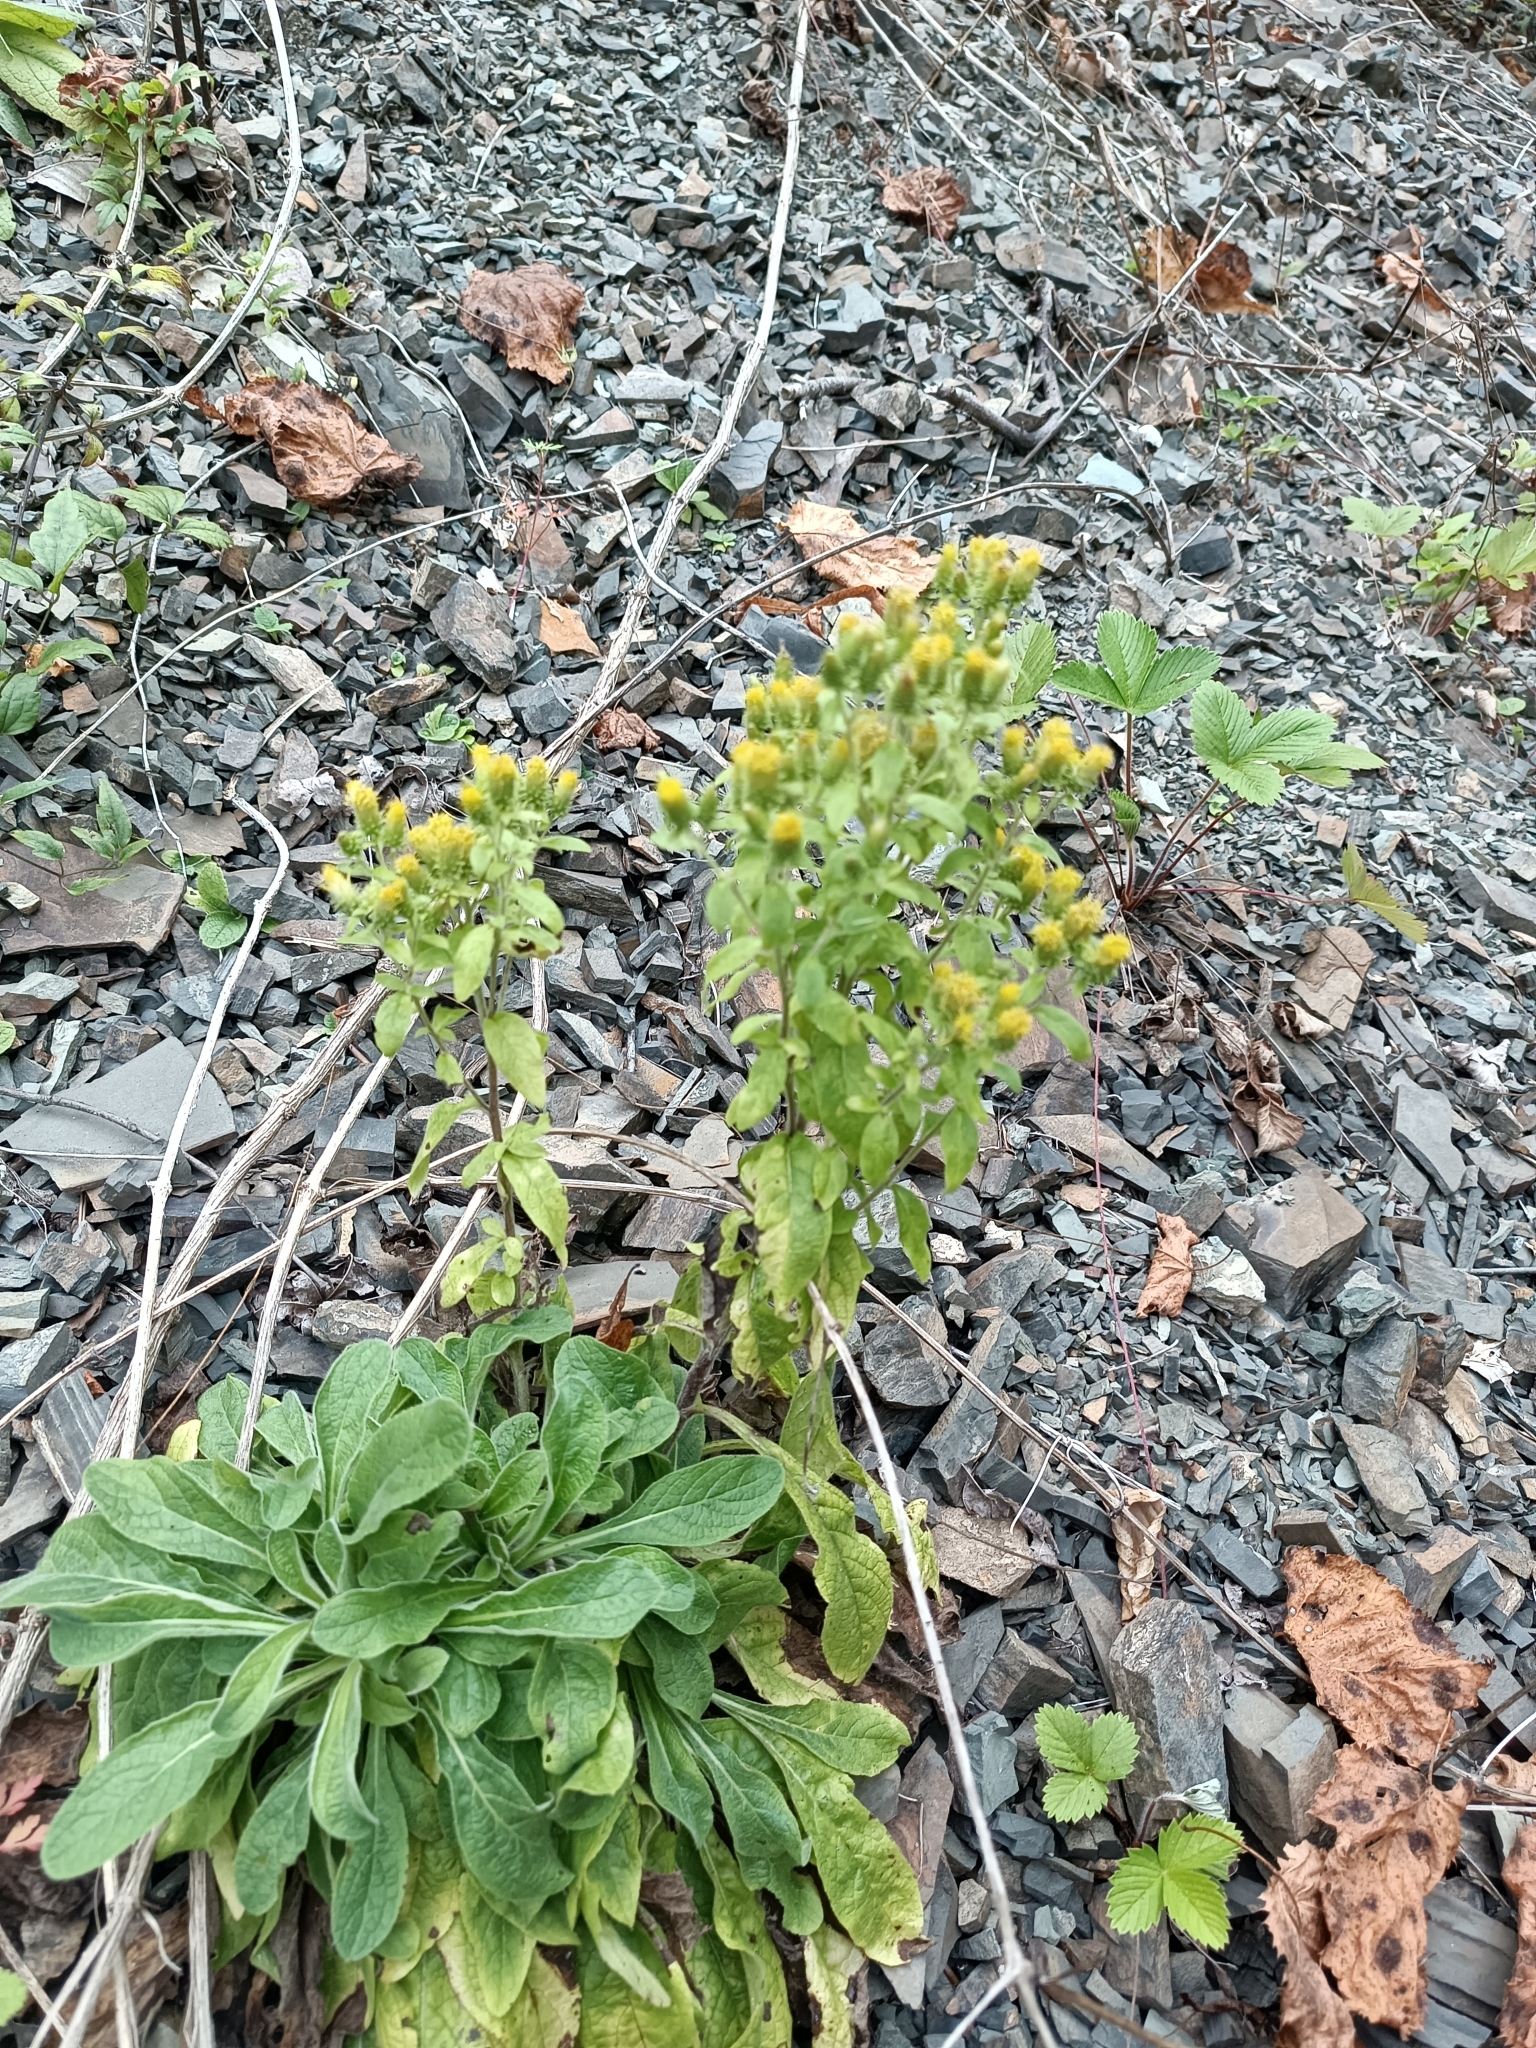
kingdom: Plantae
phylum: Tracheophyta
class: Magnoliopsida
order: Asterales
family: Asteraceae
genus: Pentanema
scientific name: Pentanema squarrosum
